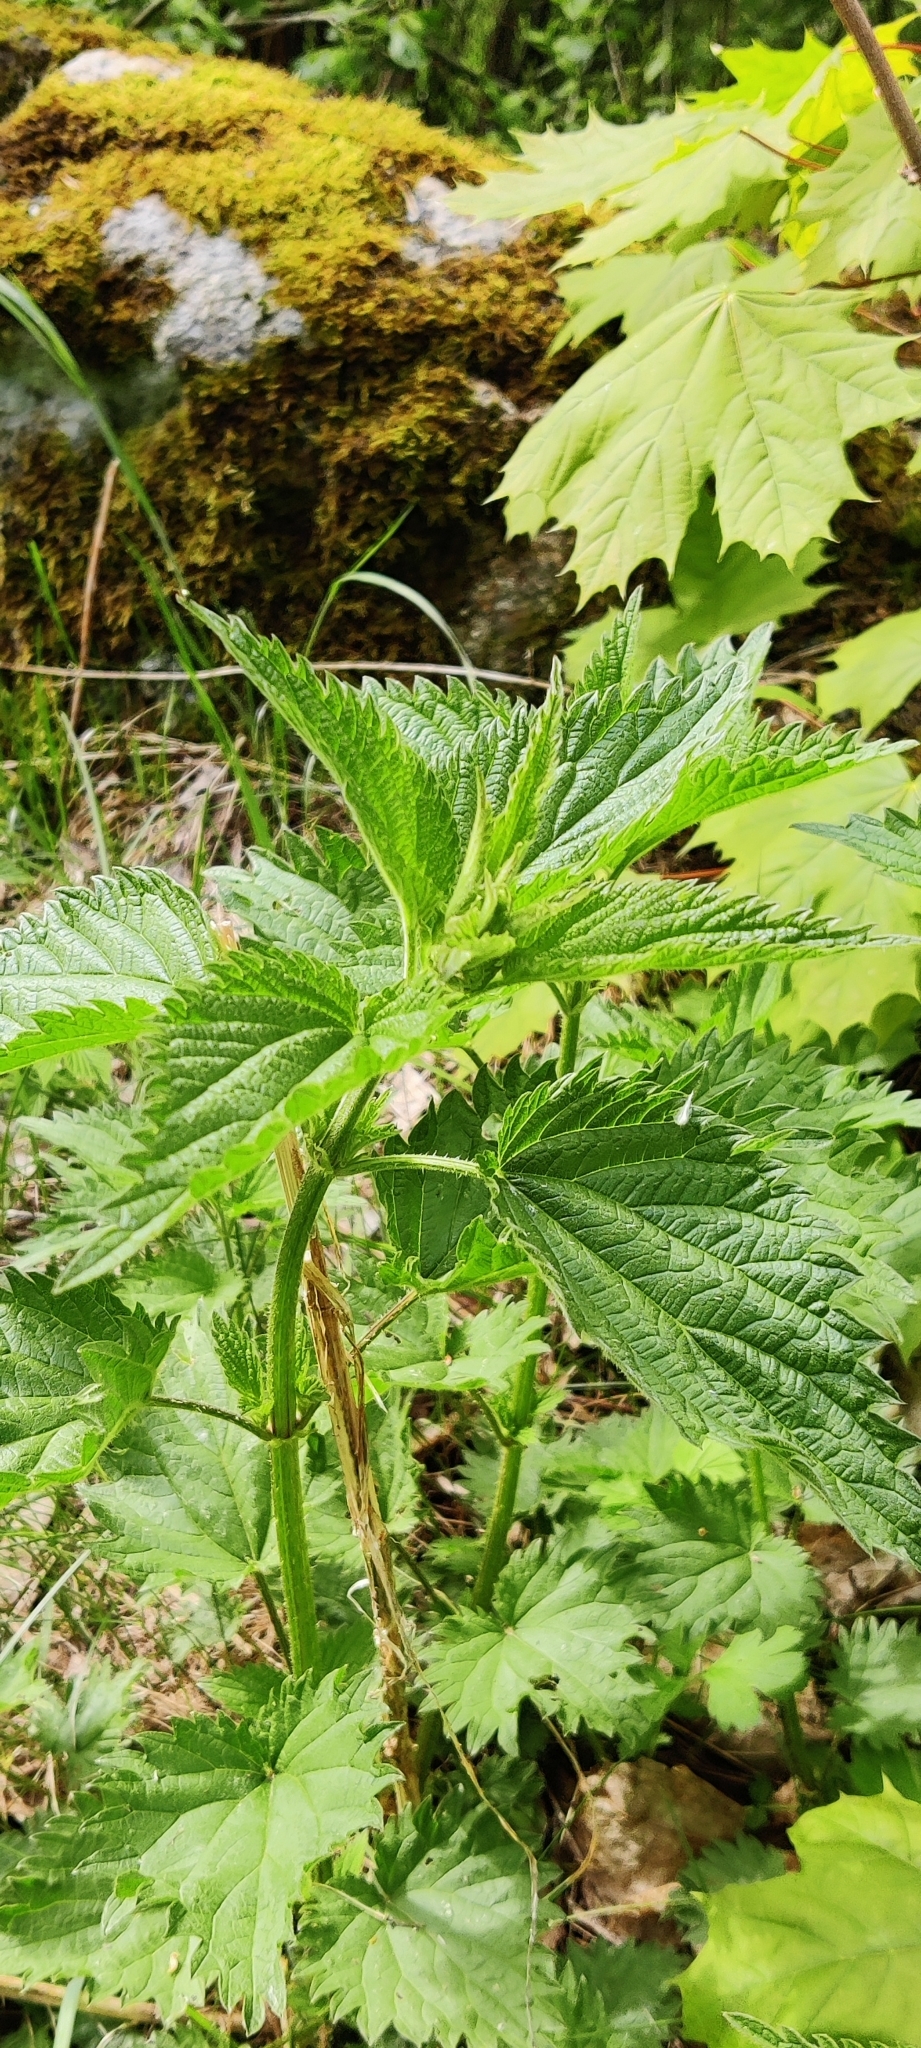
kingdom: Plantae
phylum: Tracheophyta
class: Magnoliopsida
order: Rosales
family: Urticaceae
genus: Urtica
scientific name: Urtica dioica
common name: Common nettle
